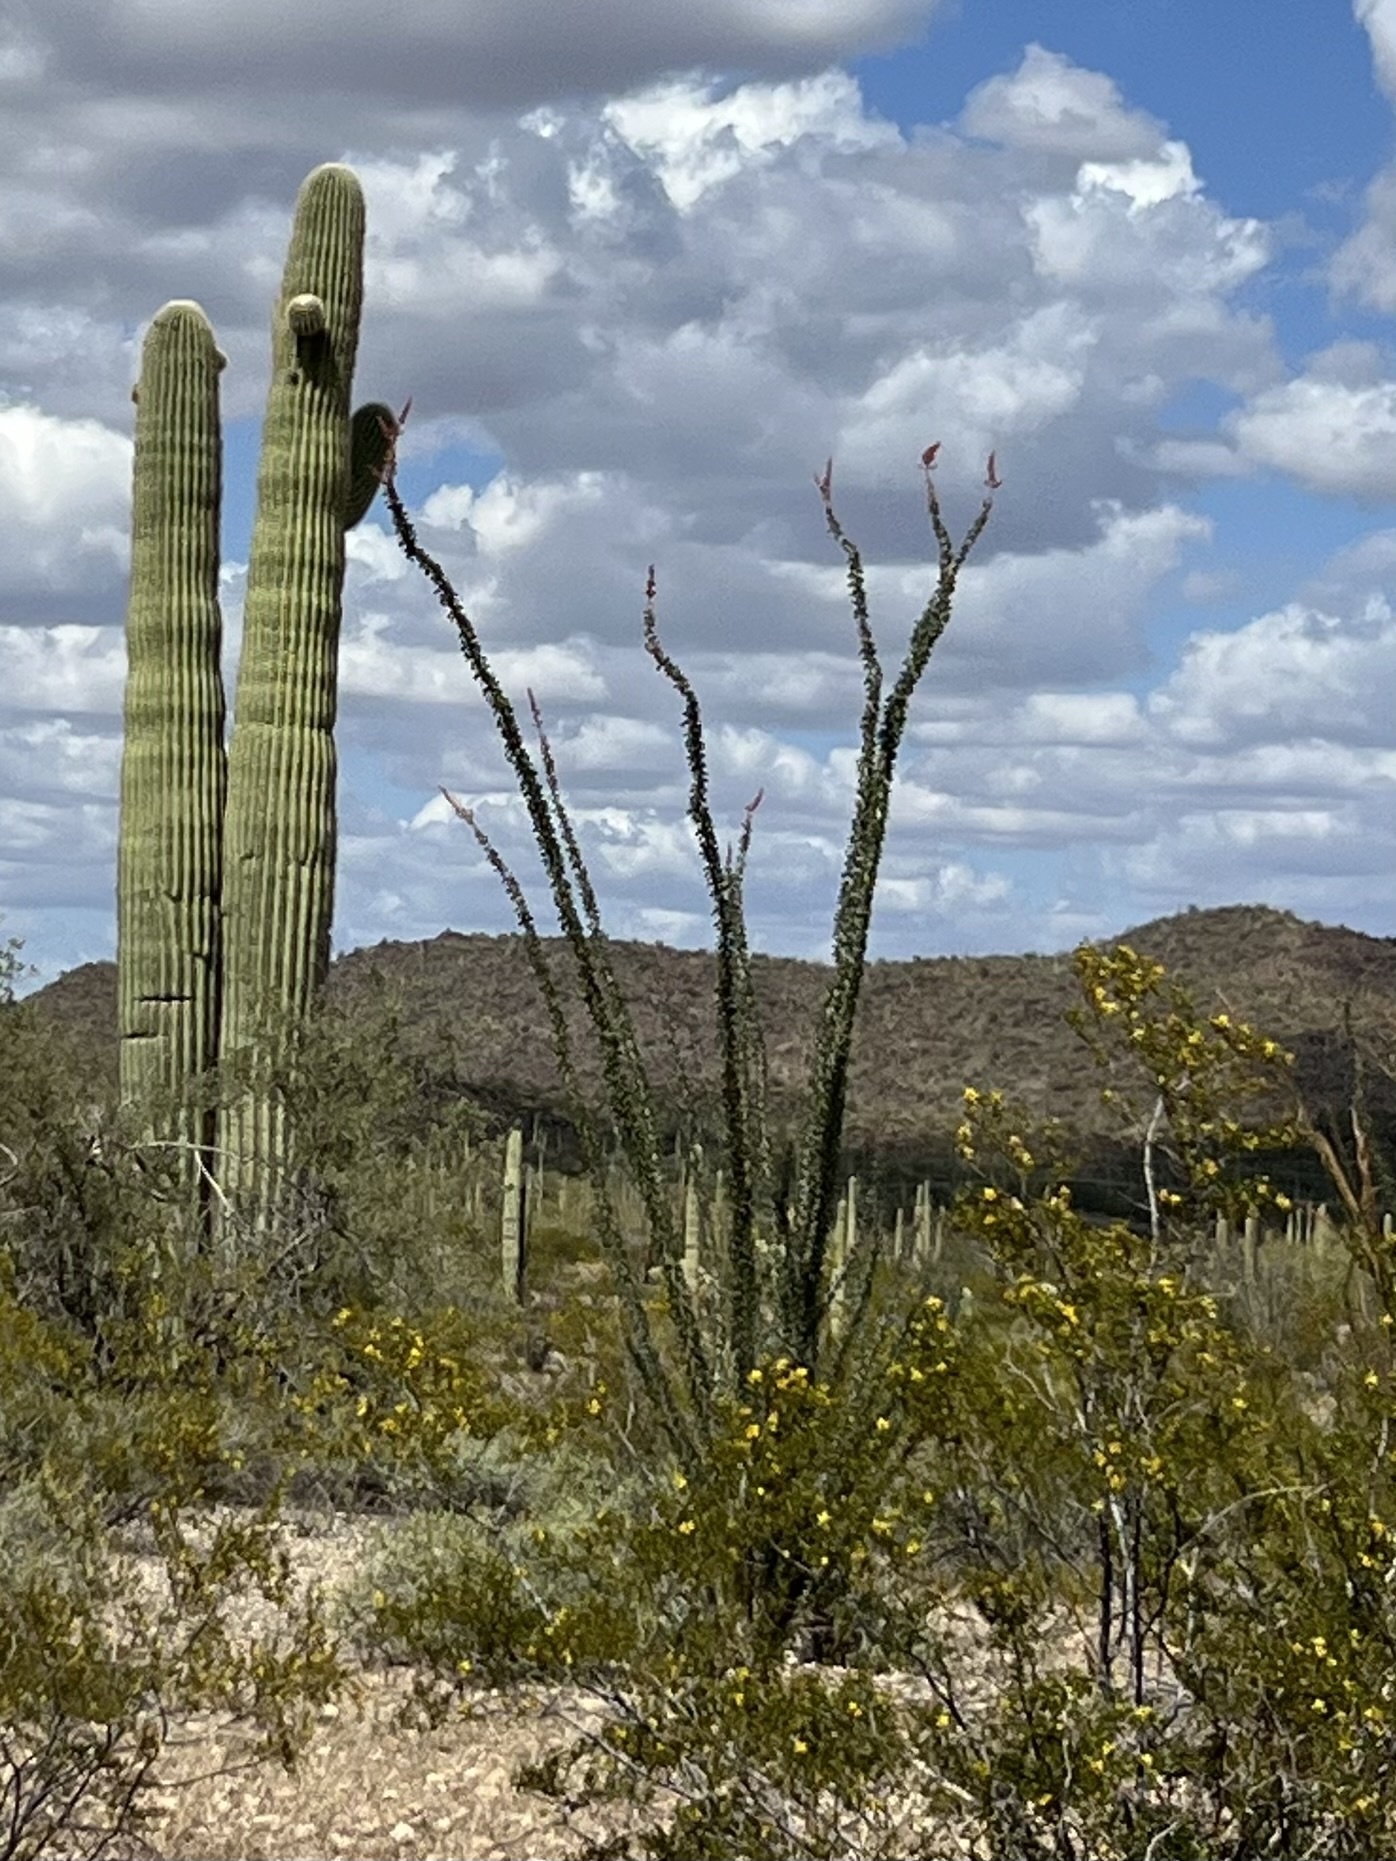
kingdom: Plantae
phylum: Tracheophyta
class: Magnoliopsida
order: Ericales
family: Fouquieriaceae
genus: Fouquieria
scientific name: Fouquieria splendens
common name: Vine-cactus
